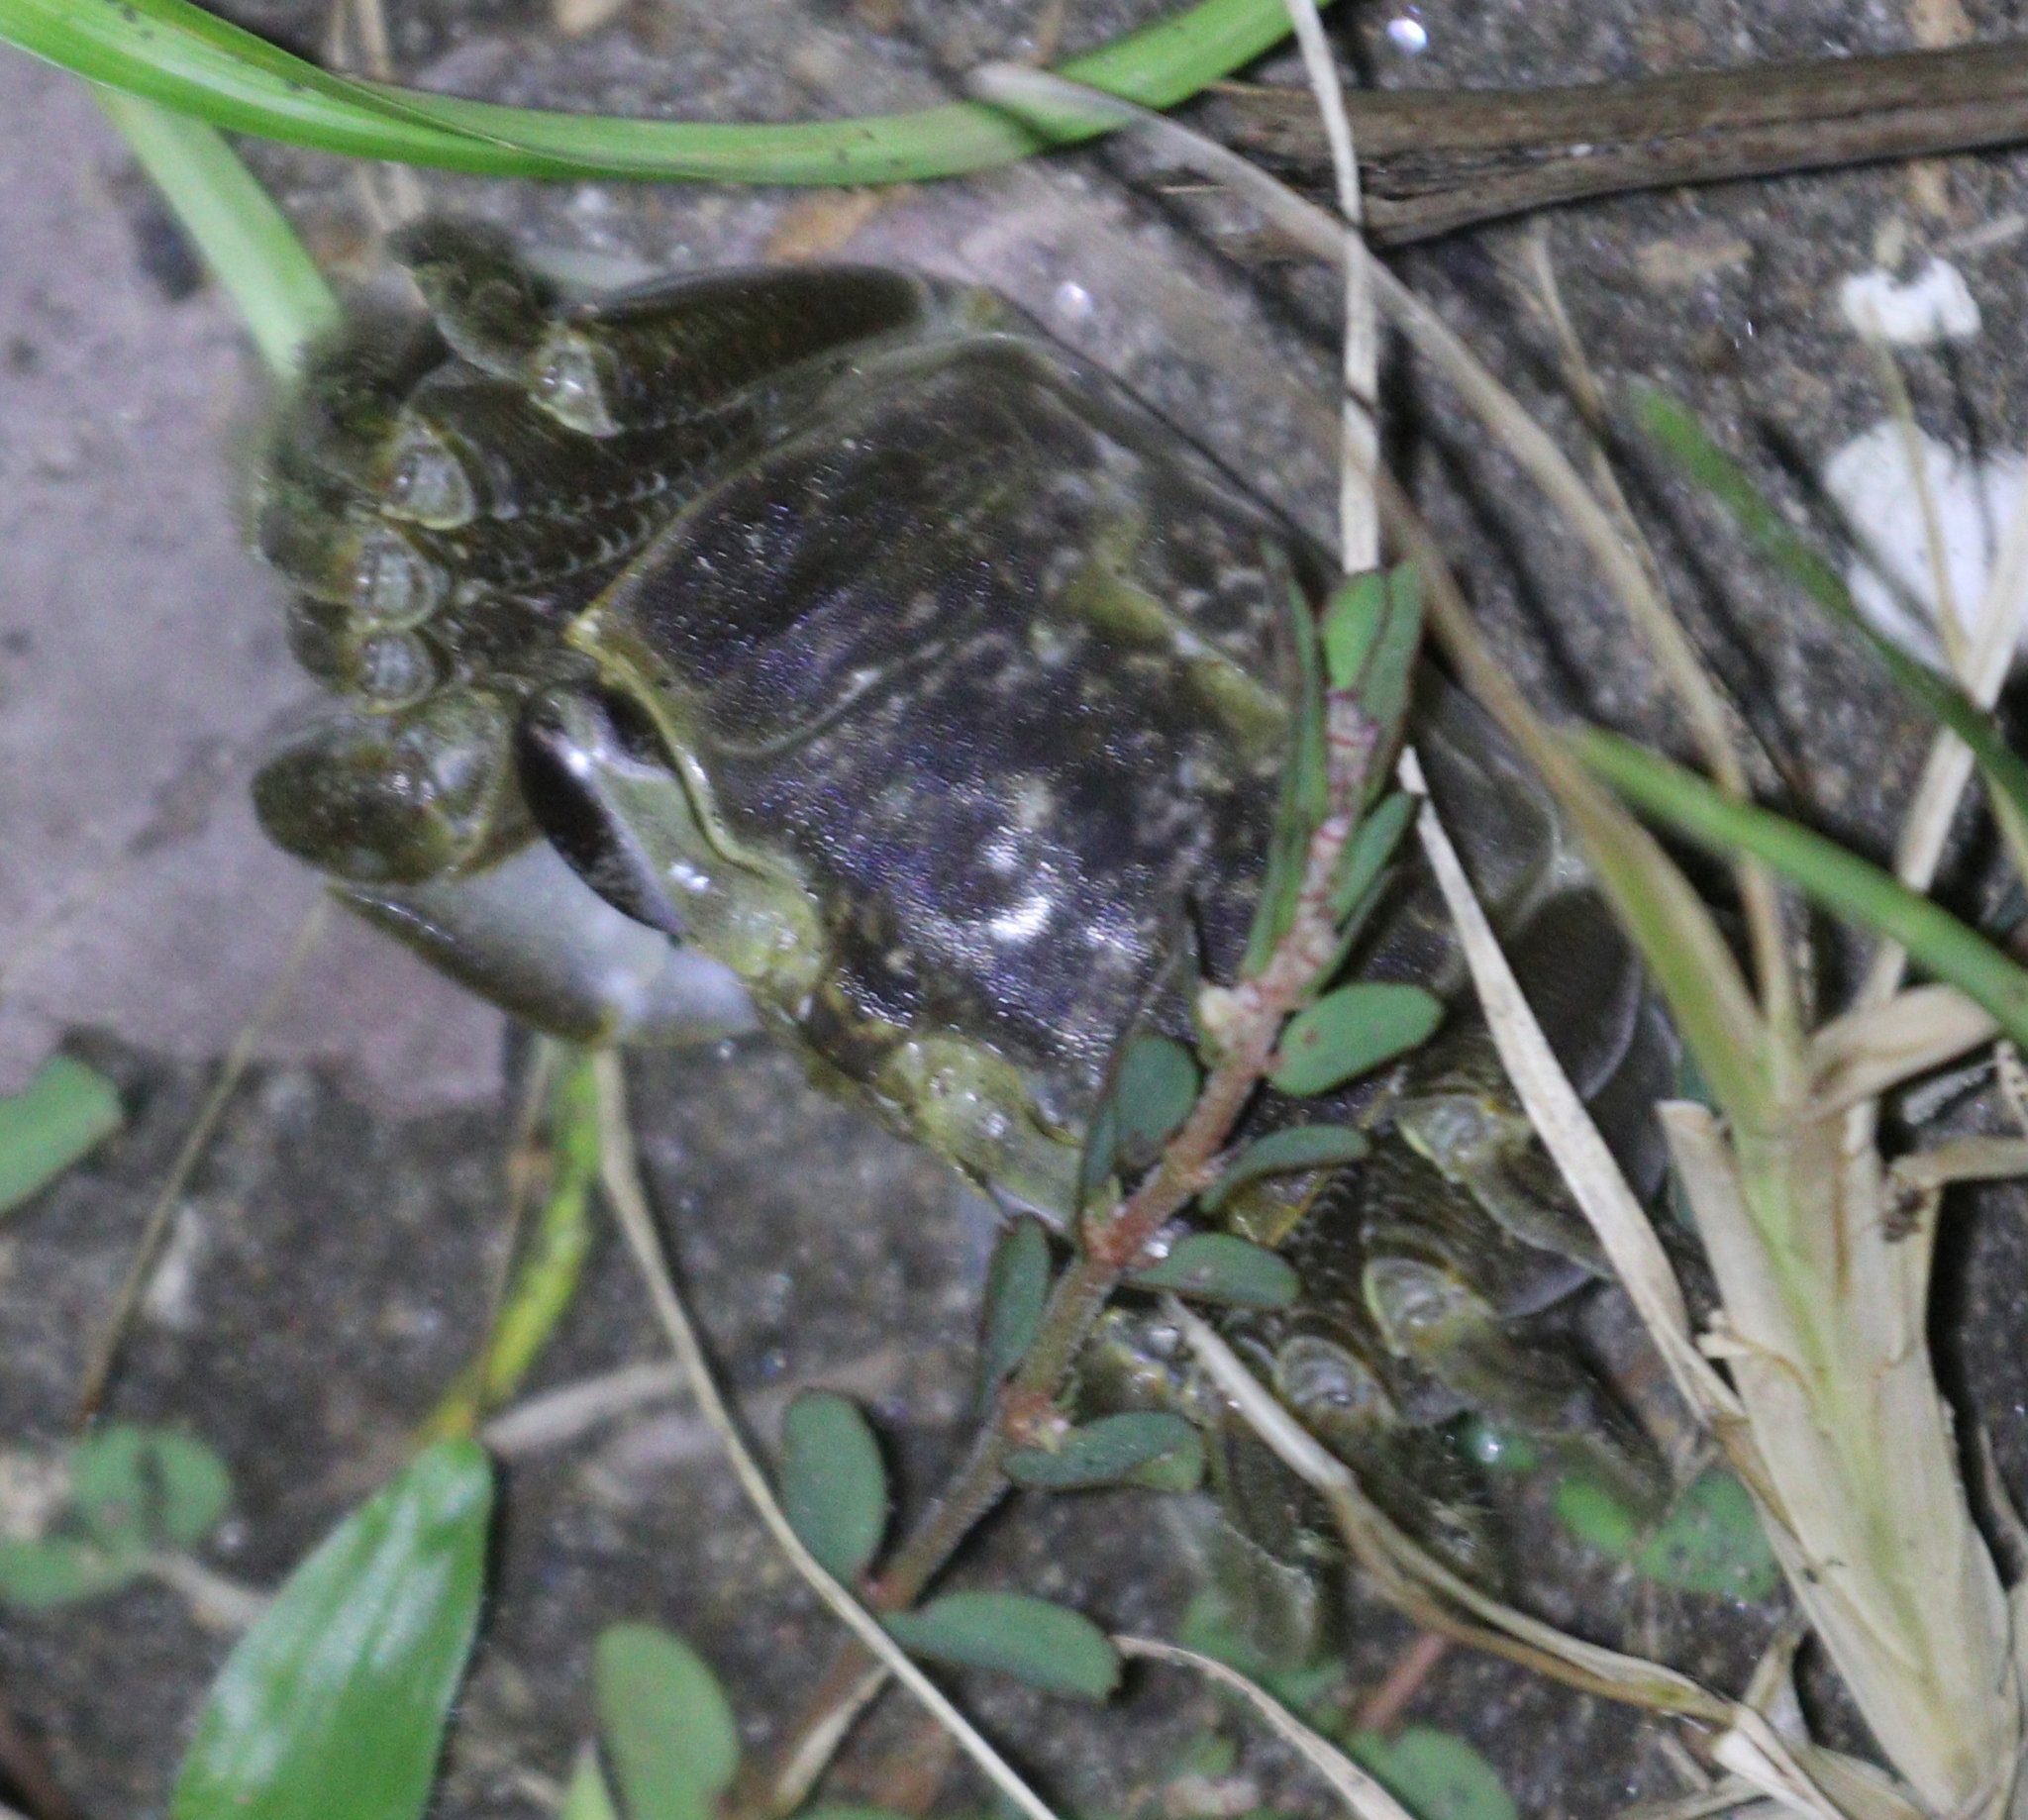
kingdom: Animalia
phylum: Arthropoda
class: Malacostraca
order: Decapoda
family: Ocypodidae
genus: Ocypode
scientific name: Ocypode quadrata
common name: Ghost crab
